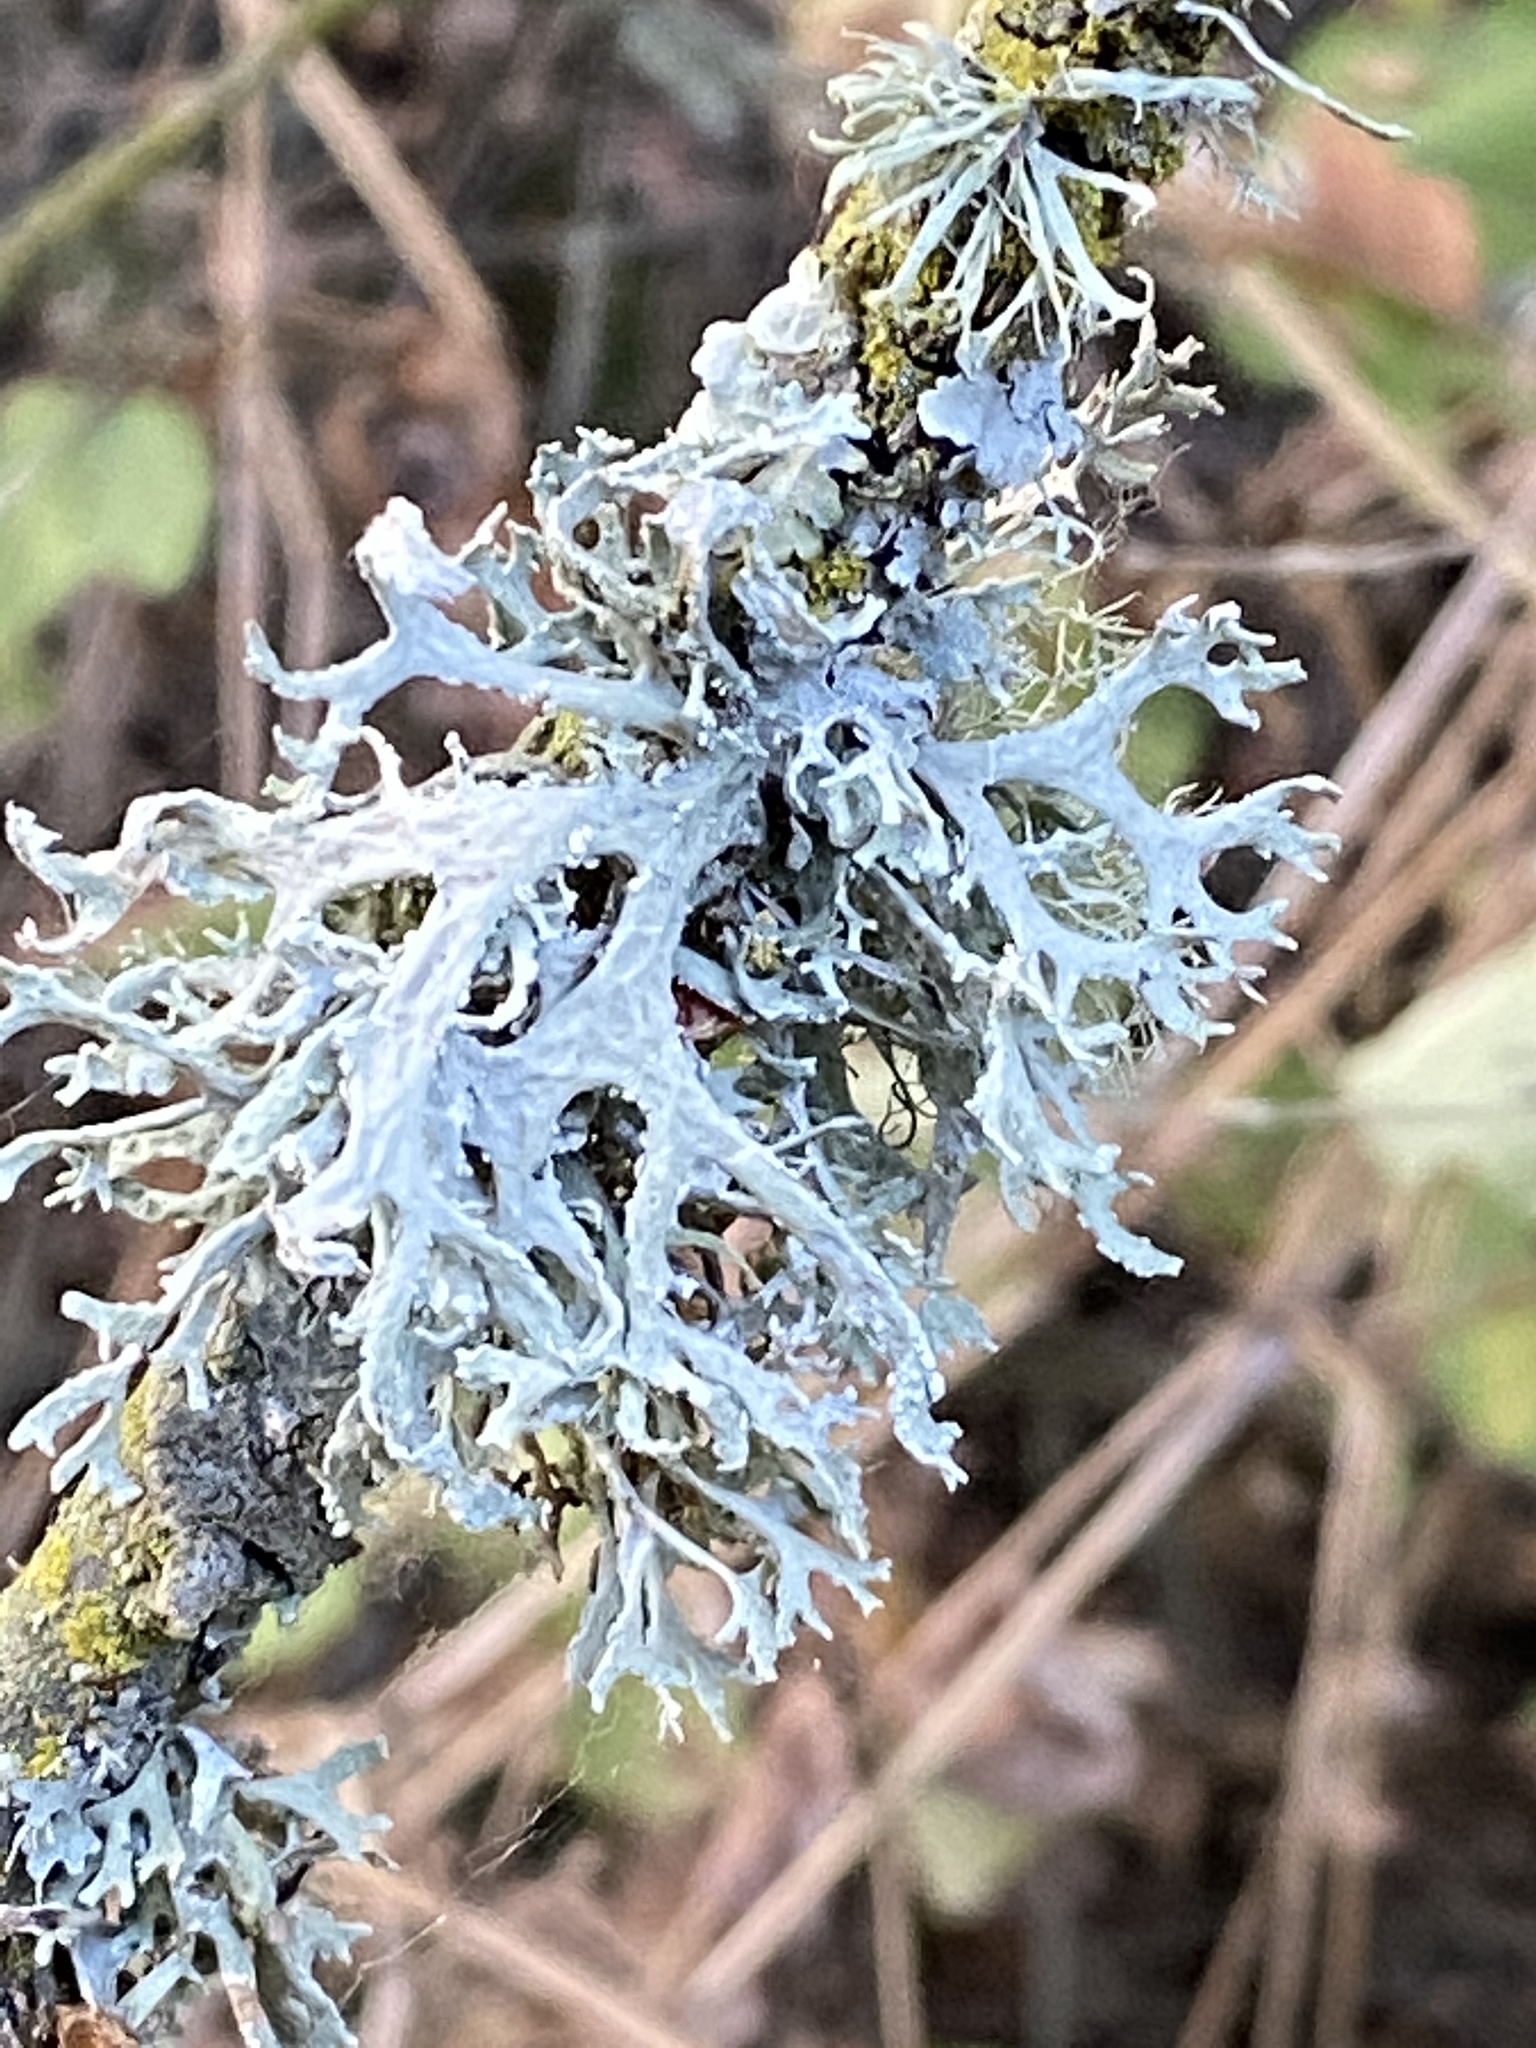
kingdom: Fungi
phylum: Ascomycota
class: Lecanoromycetes
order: Lecanorales
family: Parmeliaceae
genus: Evernia
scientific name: Evernia prunastri
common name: Oak moss
